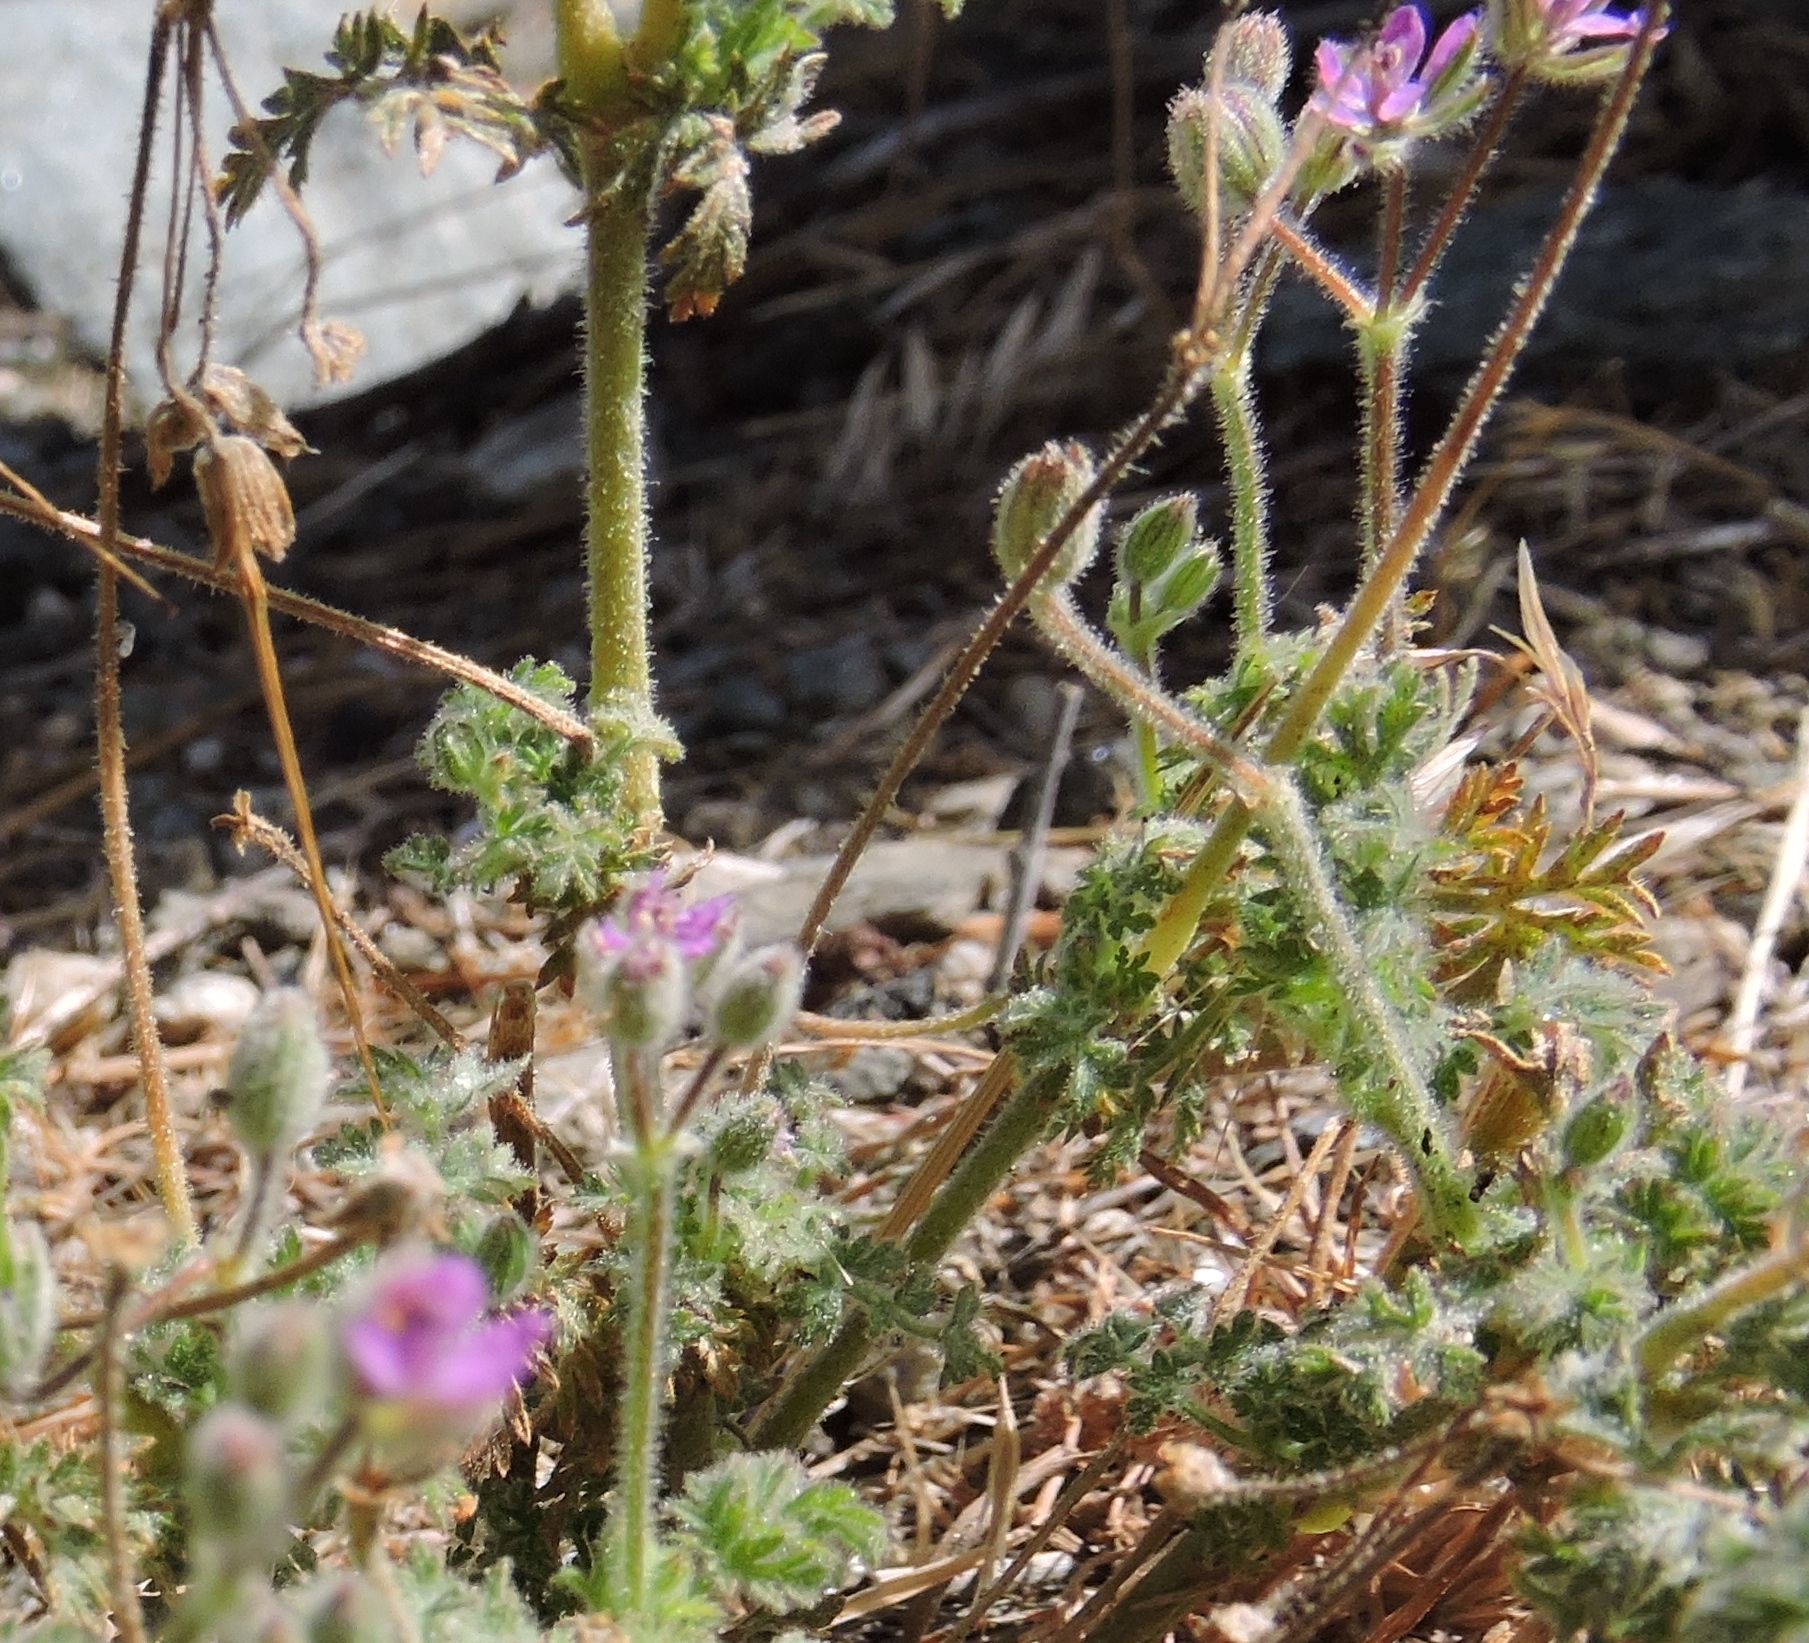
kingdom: Plantae
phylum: Tracheophyta
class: Magnoliopsida
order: Geraniales
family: Geraniaceae
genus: Erodium
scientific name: Erodium cicutarium
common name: Common stork's-bill
